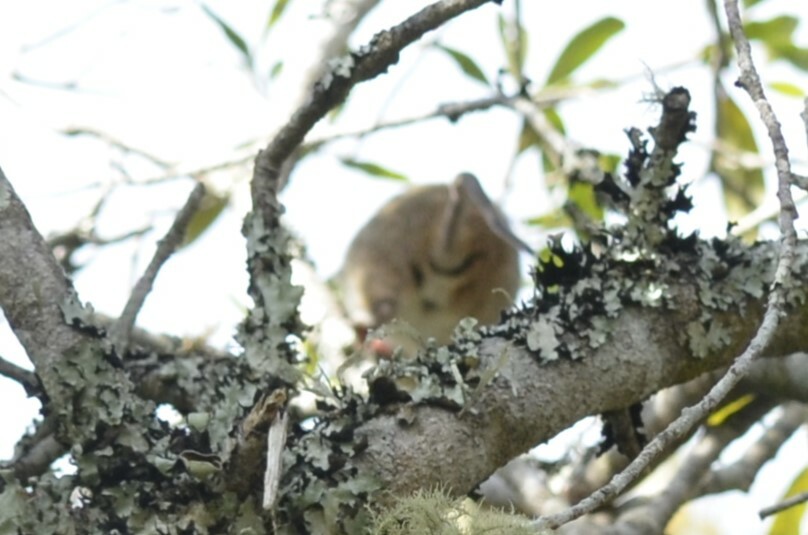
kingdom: Animalia
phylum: Chordata
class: Mammalia
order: Rodentia
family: Cricetidae
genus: Wilfredomys
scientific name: Wilfredomys oenax
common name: Rufous-nosed wilfredomys
